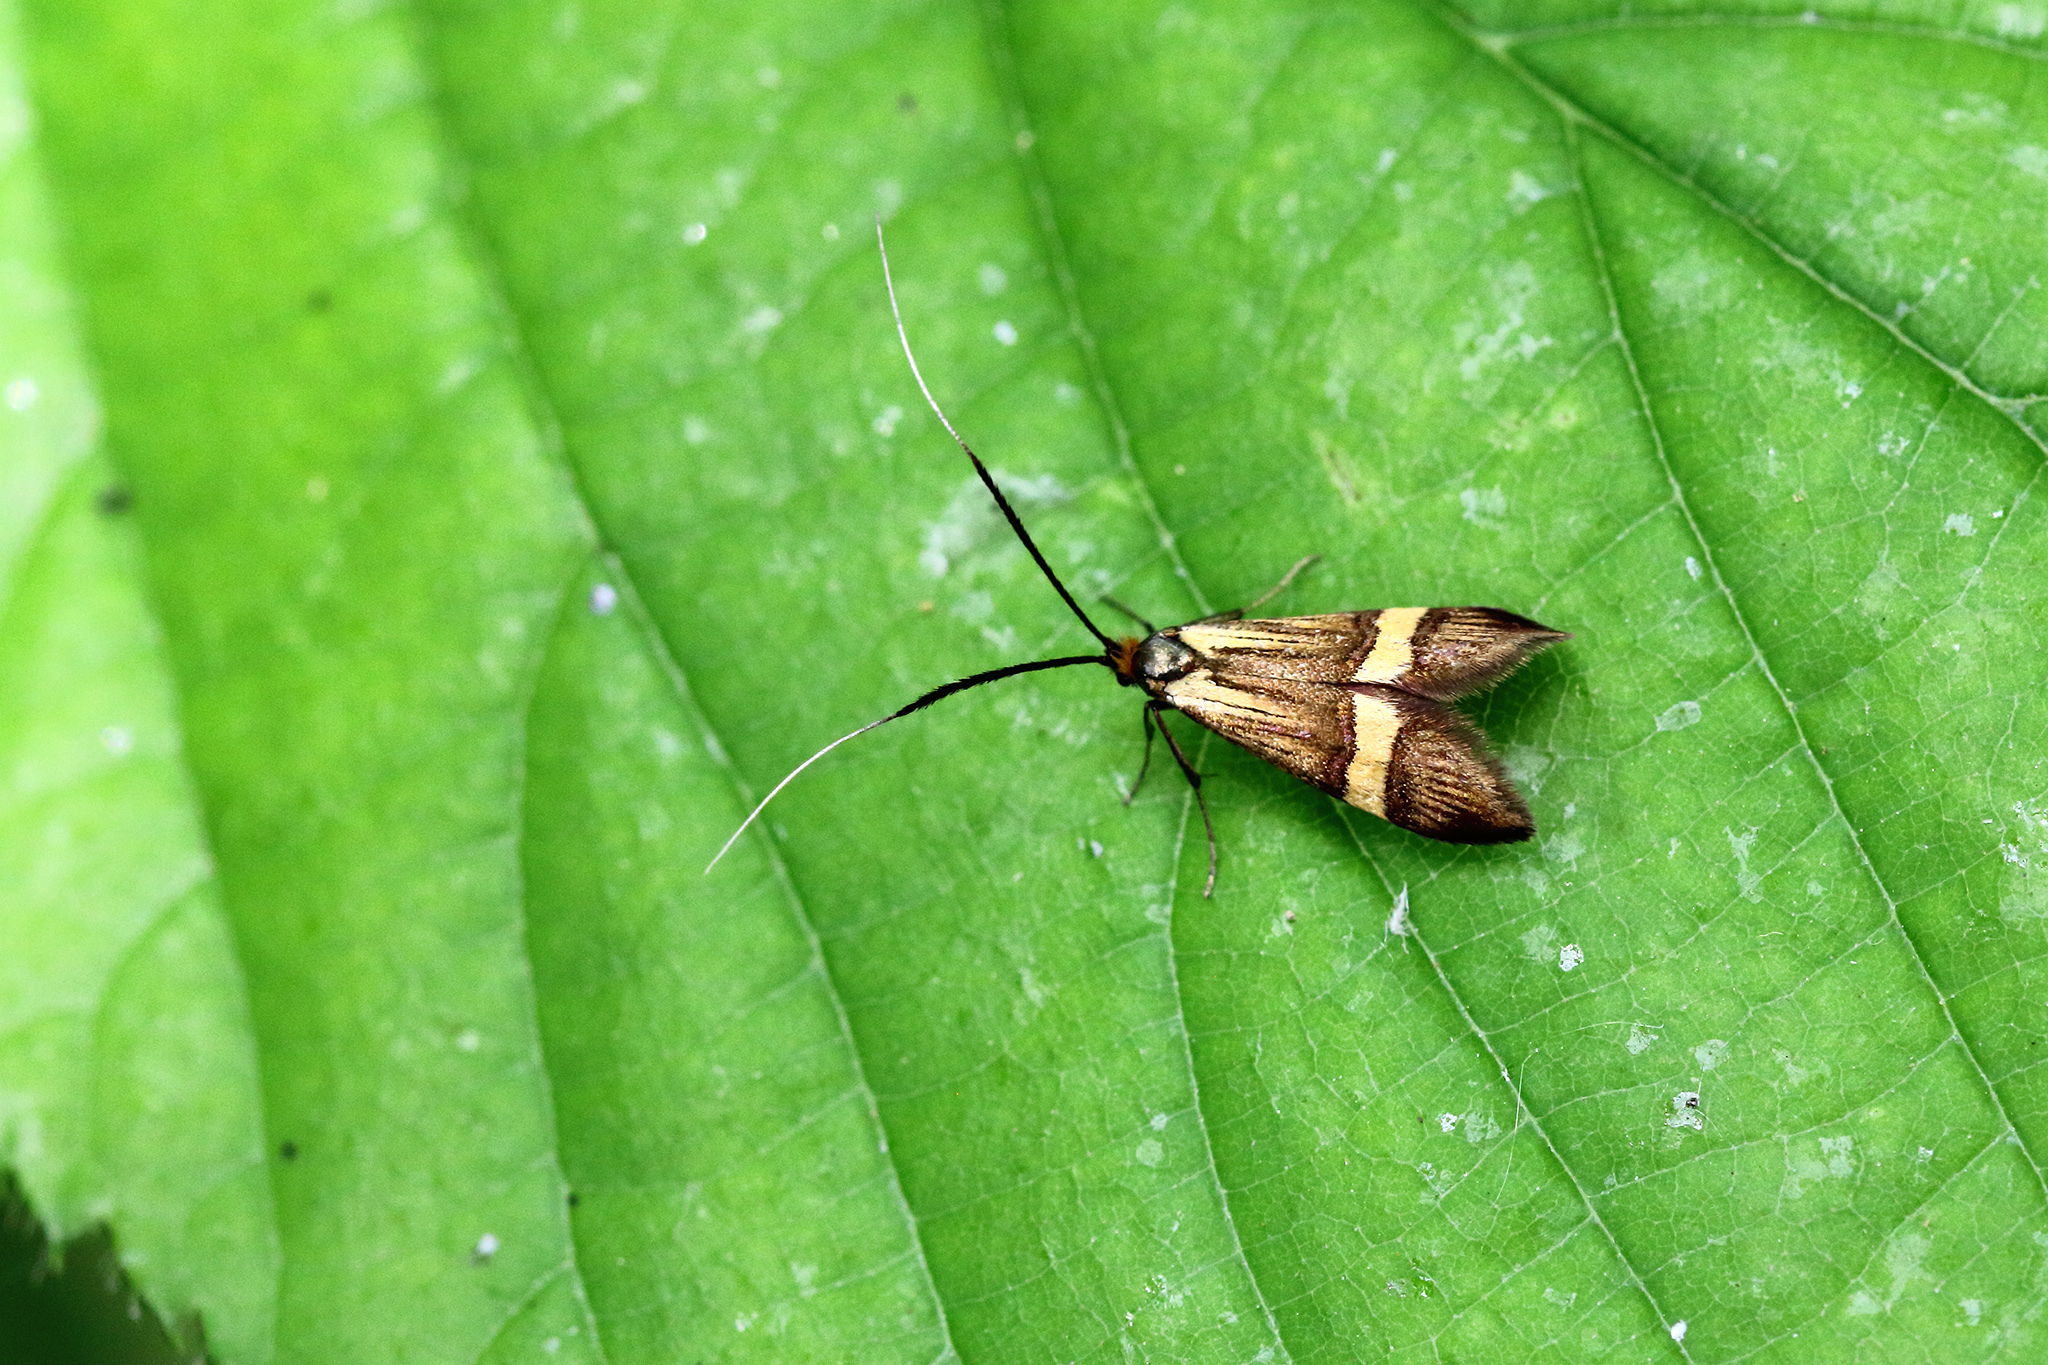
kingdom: Animalia
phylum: Arthropoda
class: Insecta
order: Lepidoptera
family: Adelidae
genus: Nemophora
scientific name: Nemophora degeerella
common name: Yellow-barred long-horn
